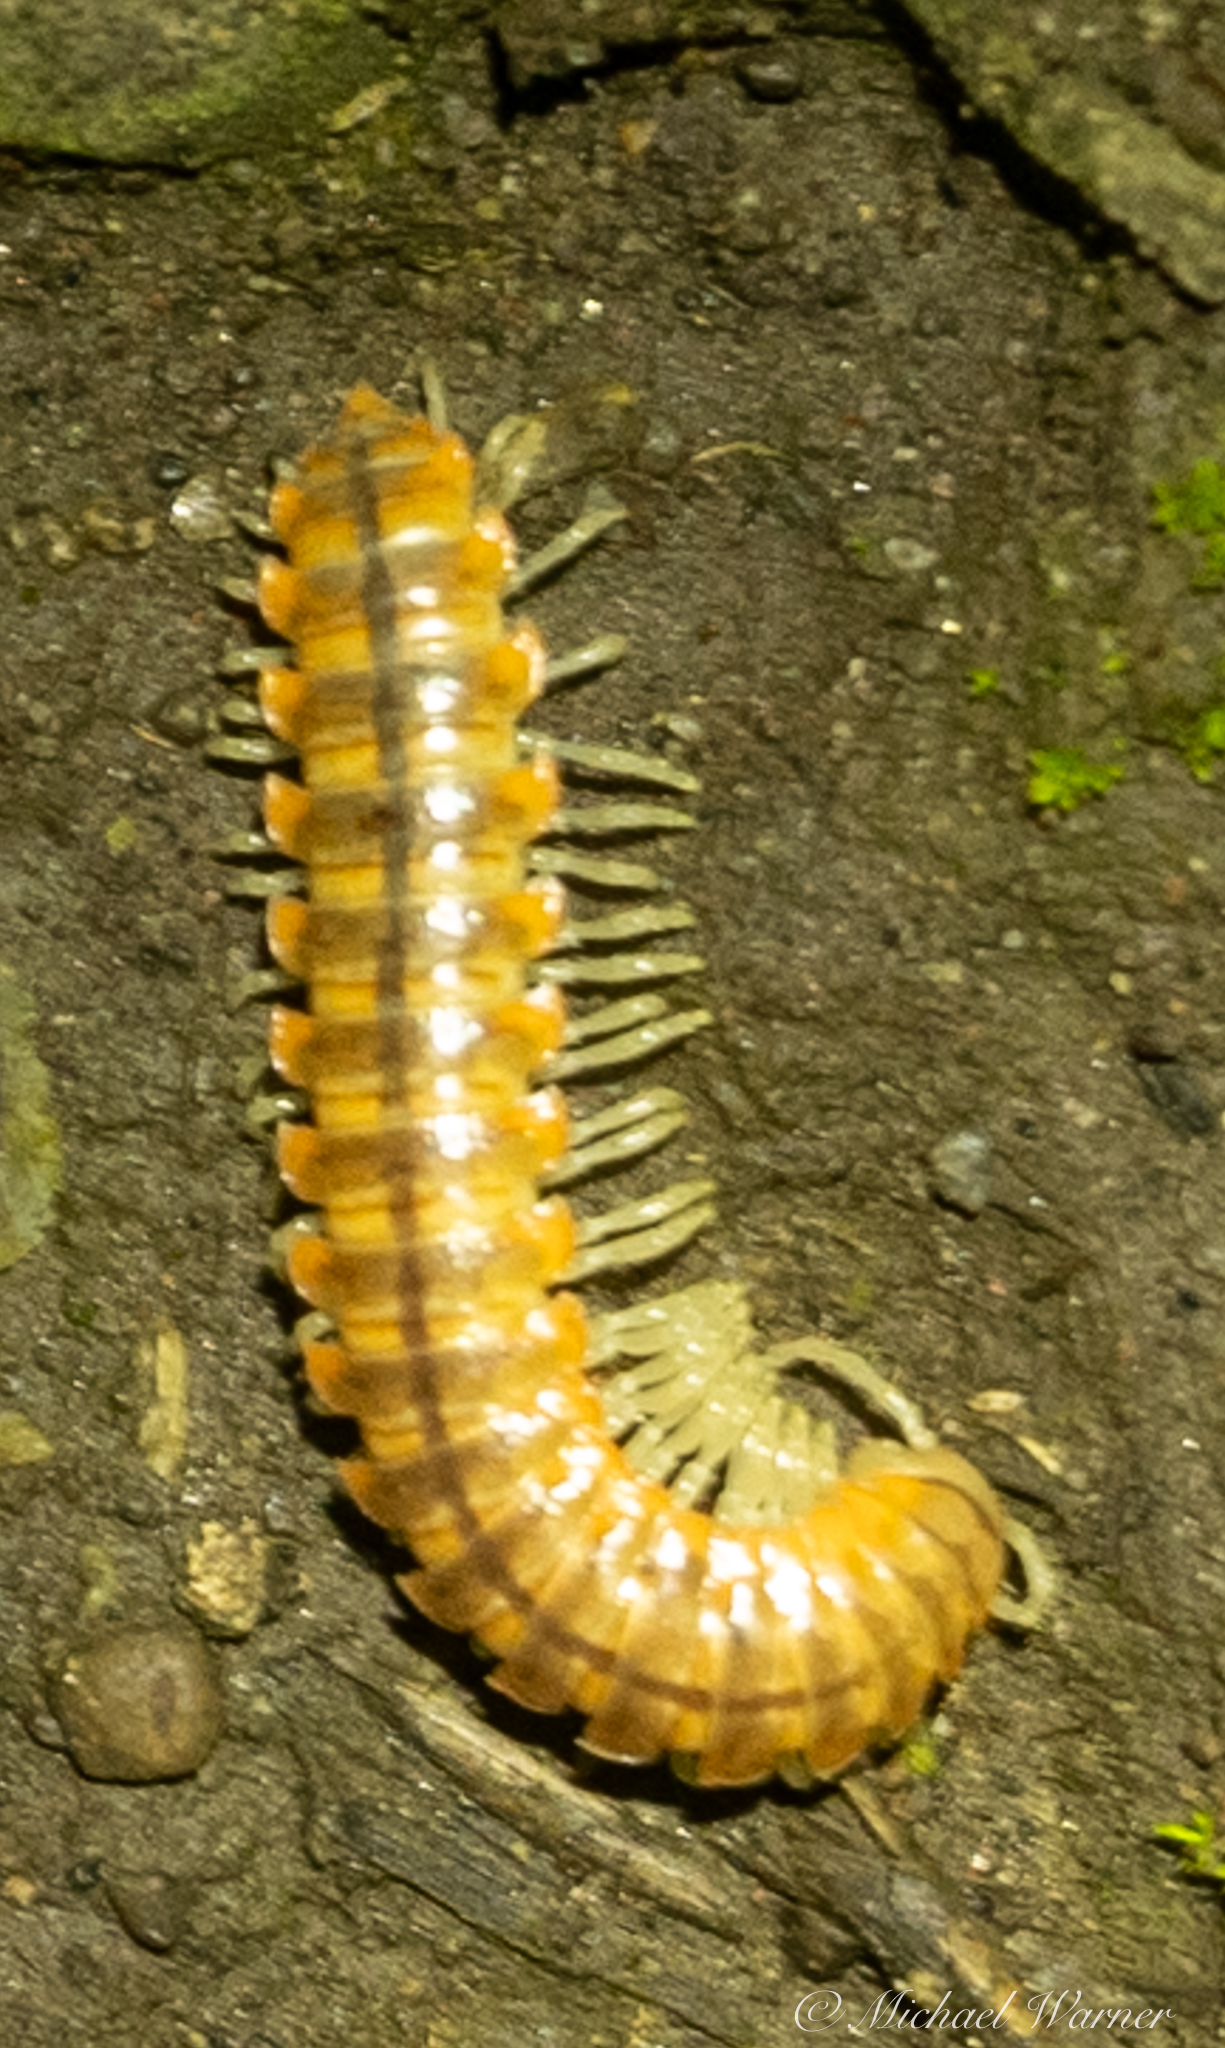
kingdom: Animalia
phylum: Arthropoda
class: Diplopoda
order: Polydesmida
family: Xystodesmidae
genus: Xystocheir
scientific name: Xystocheir dissecta
